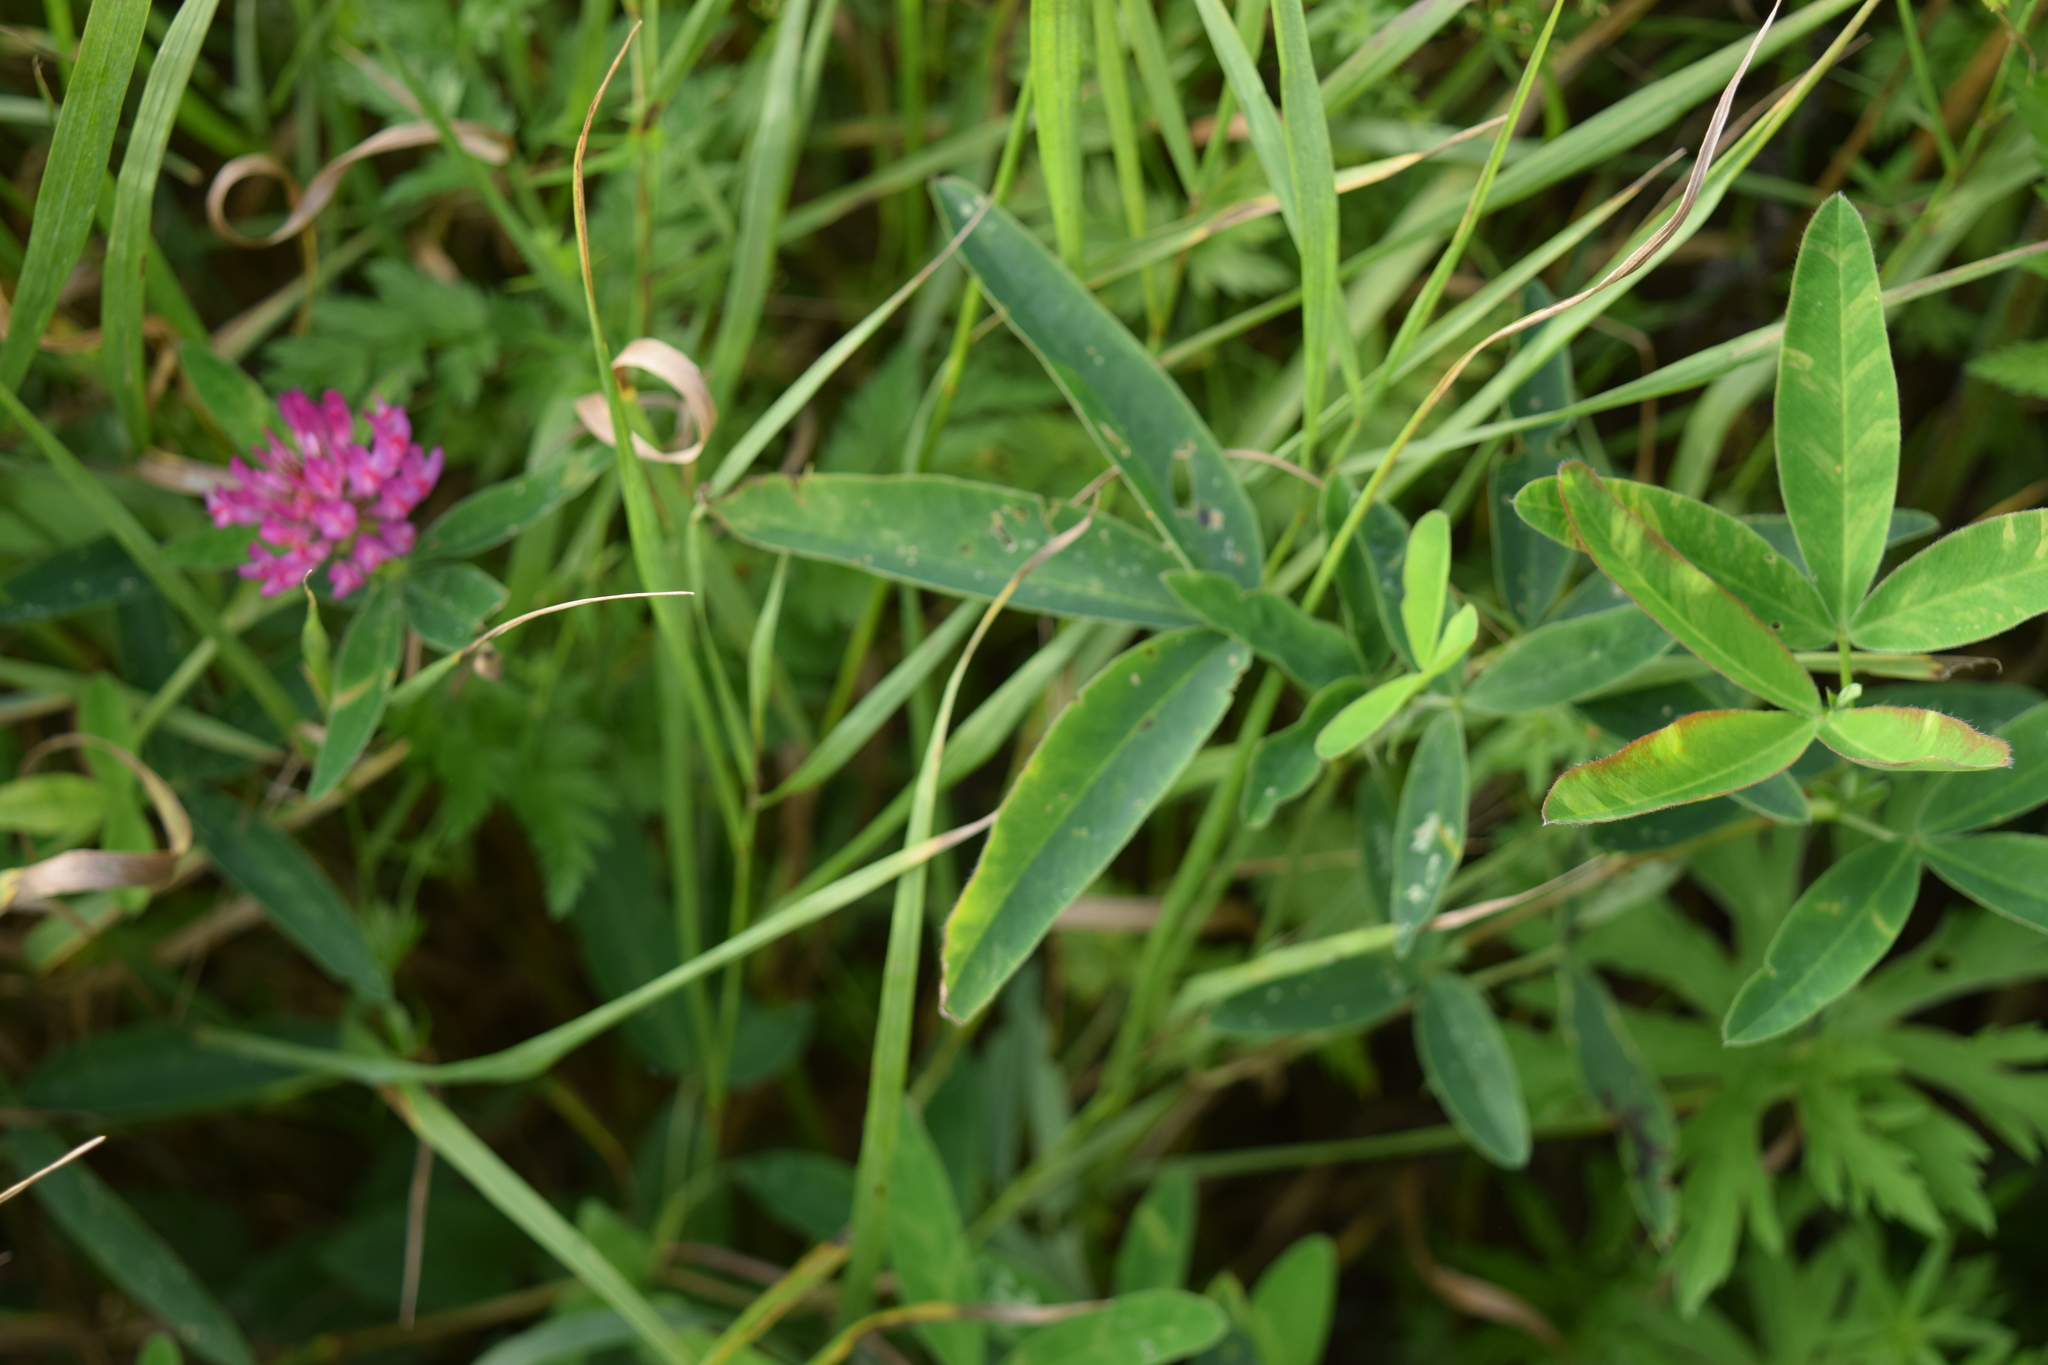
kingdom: Plantae
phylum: Tracheophyta
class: Magnoliopsida
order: Fabales
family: Fabaceae
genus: Trifolium
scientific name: Trifolium medium
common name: Zigzag clover
